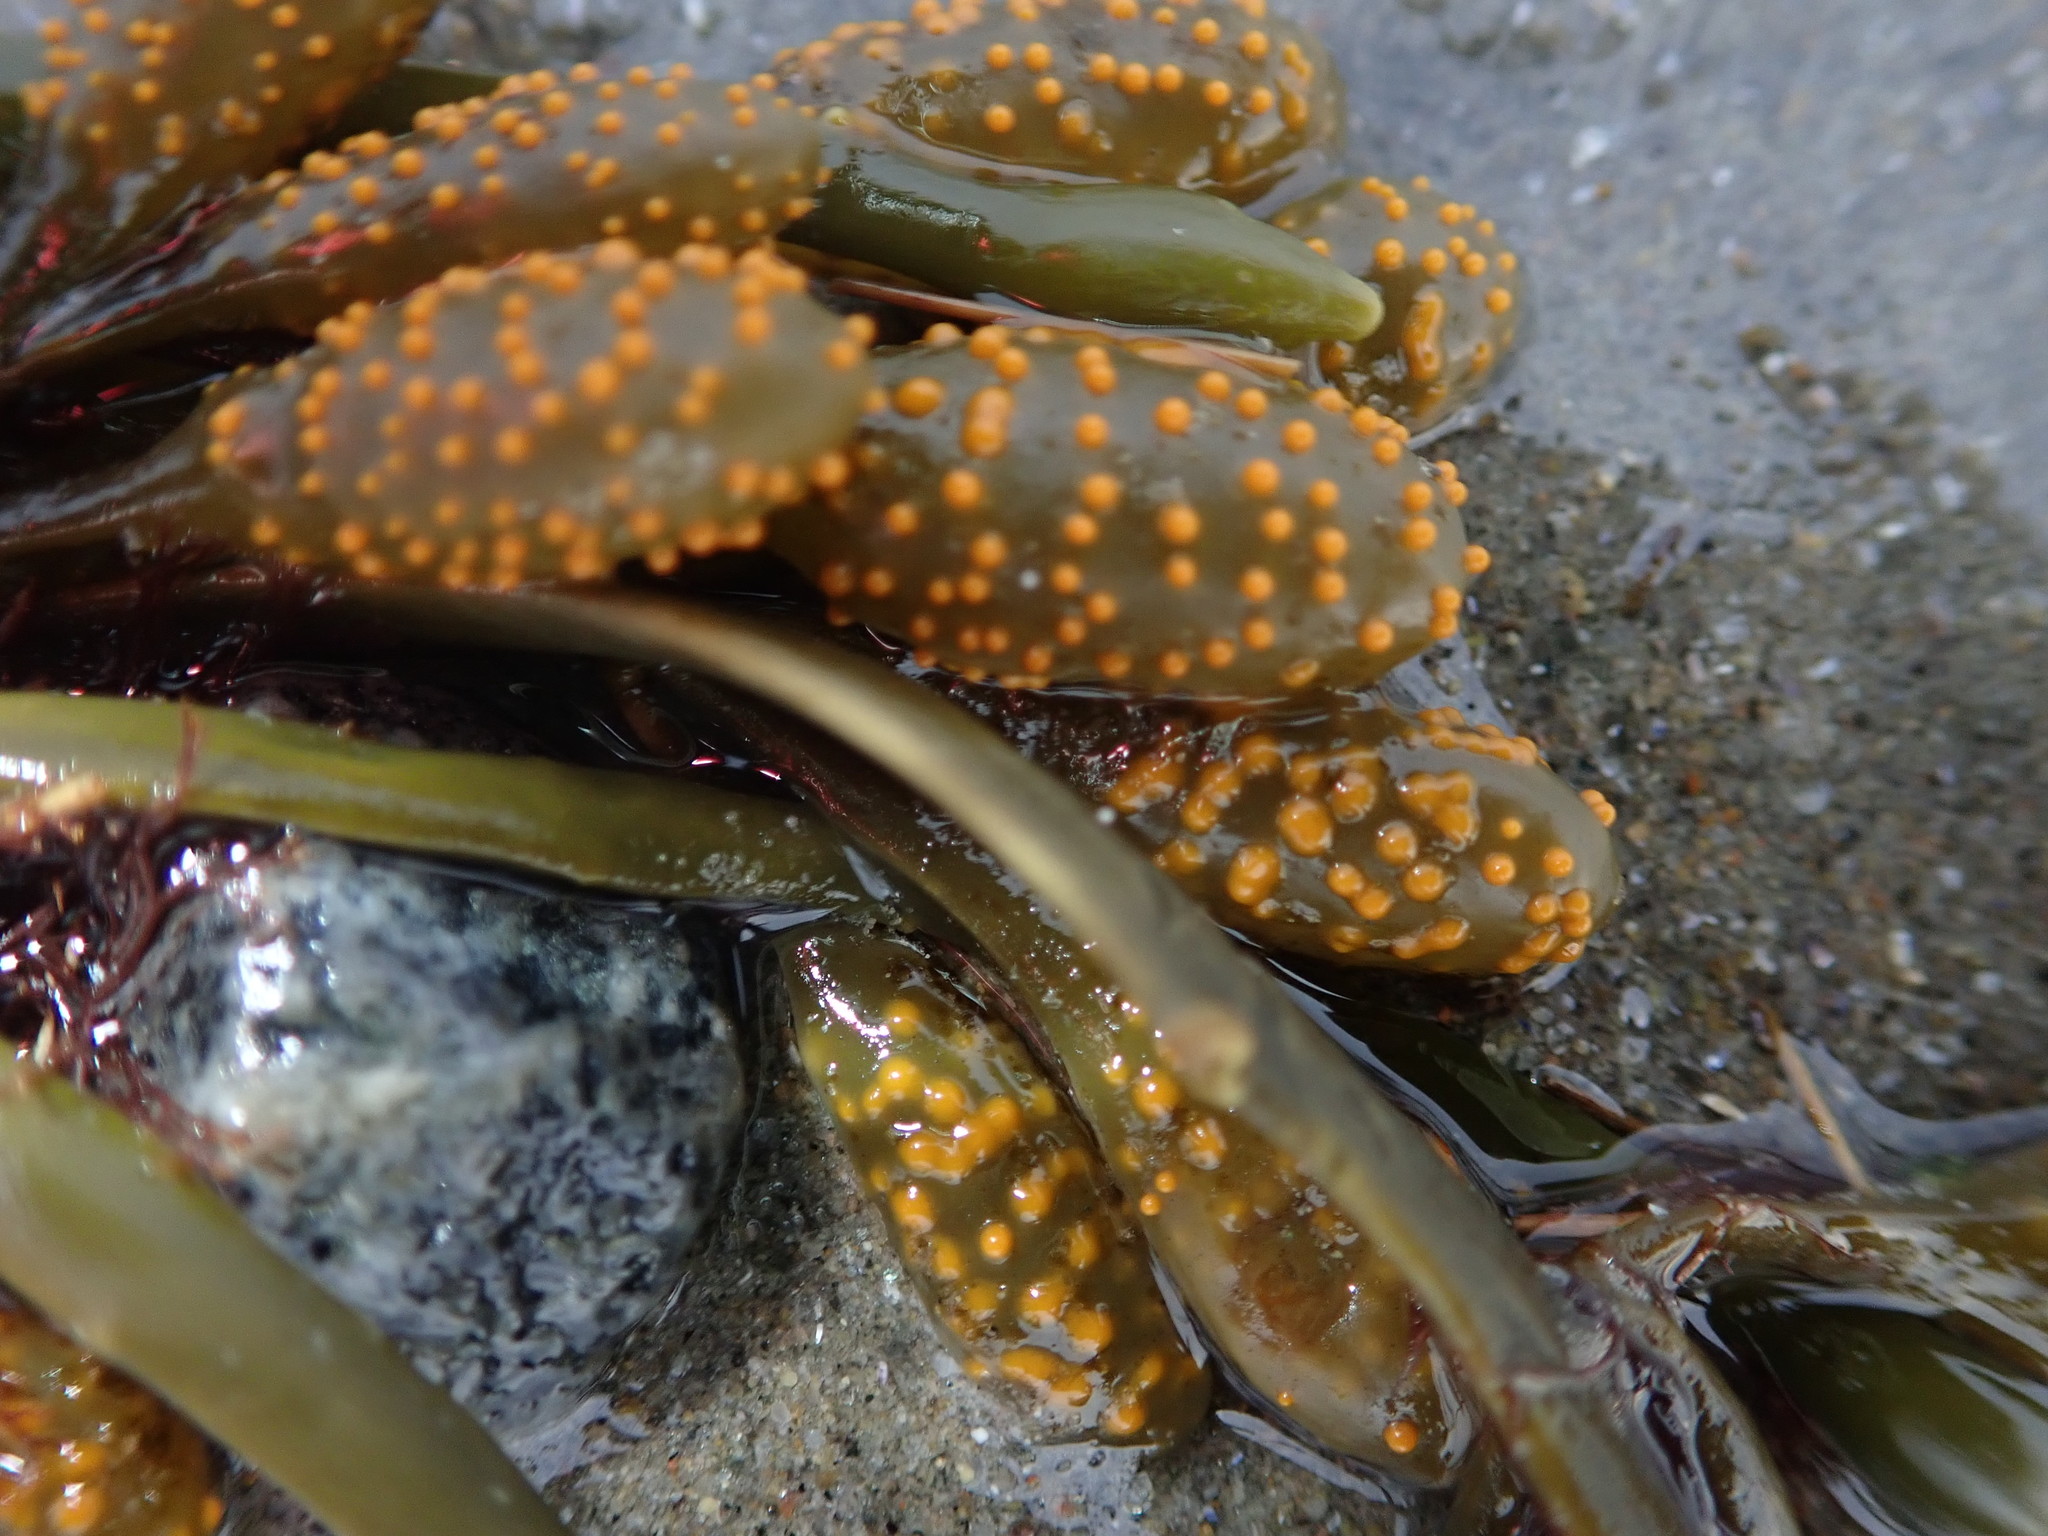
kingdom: Chromista
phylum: Ochrophyta
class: Phaeophyceae
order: Fucales
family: Fucaceae
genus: Ascophyllum
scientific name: Ascophyllum nodosum
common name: Knotted wrack
